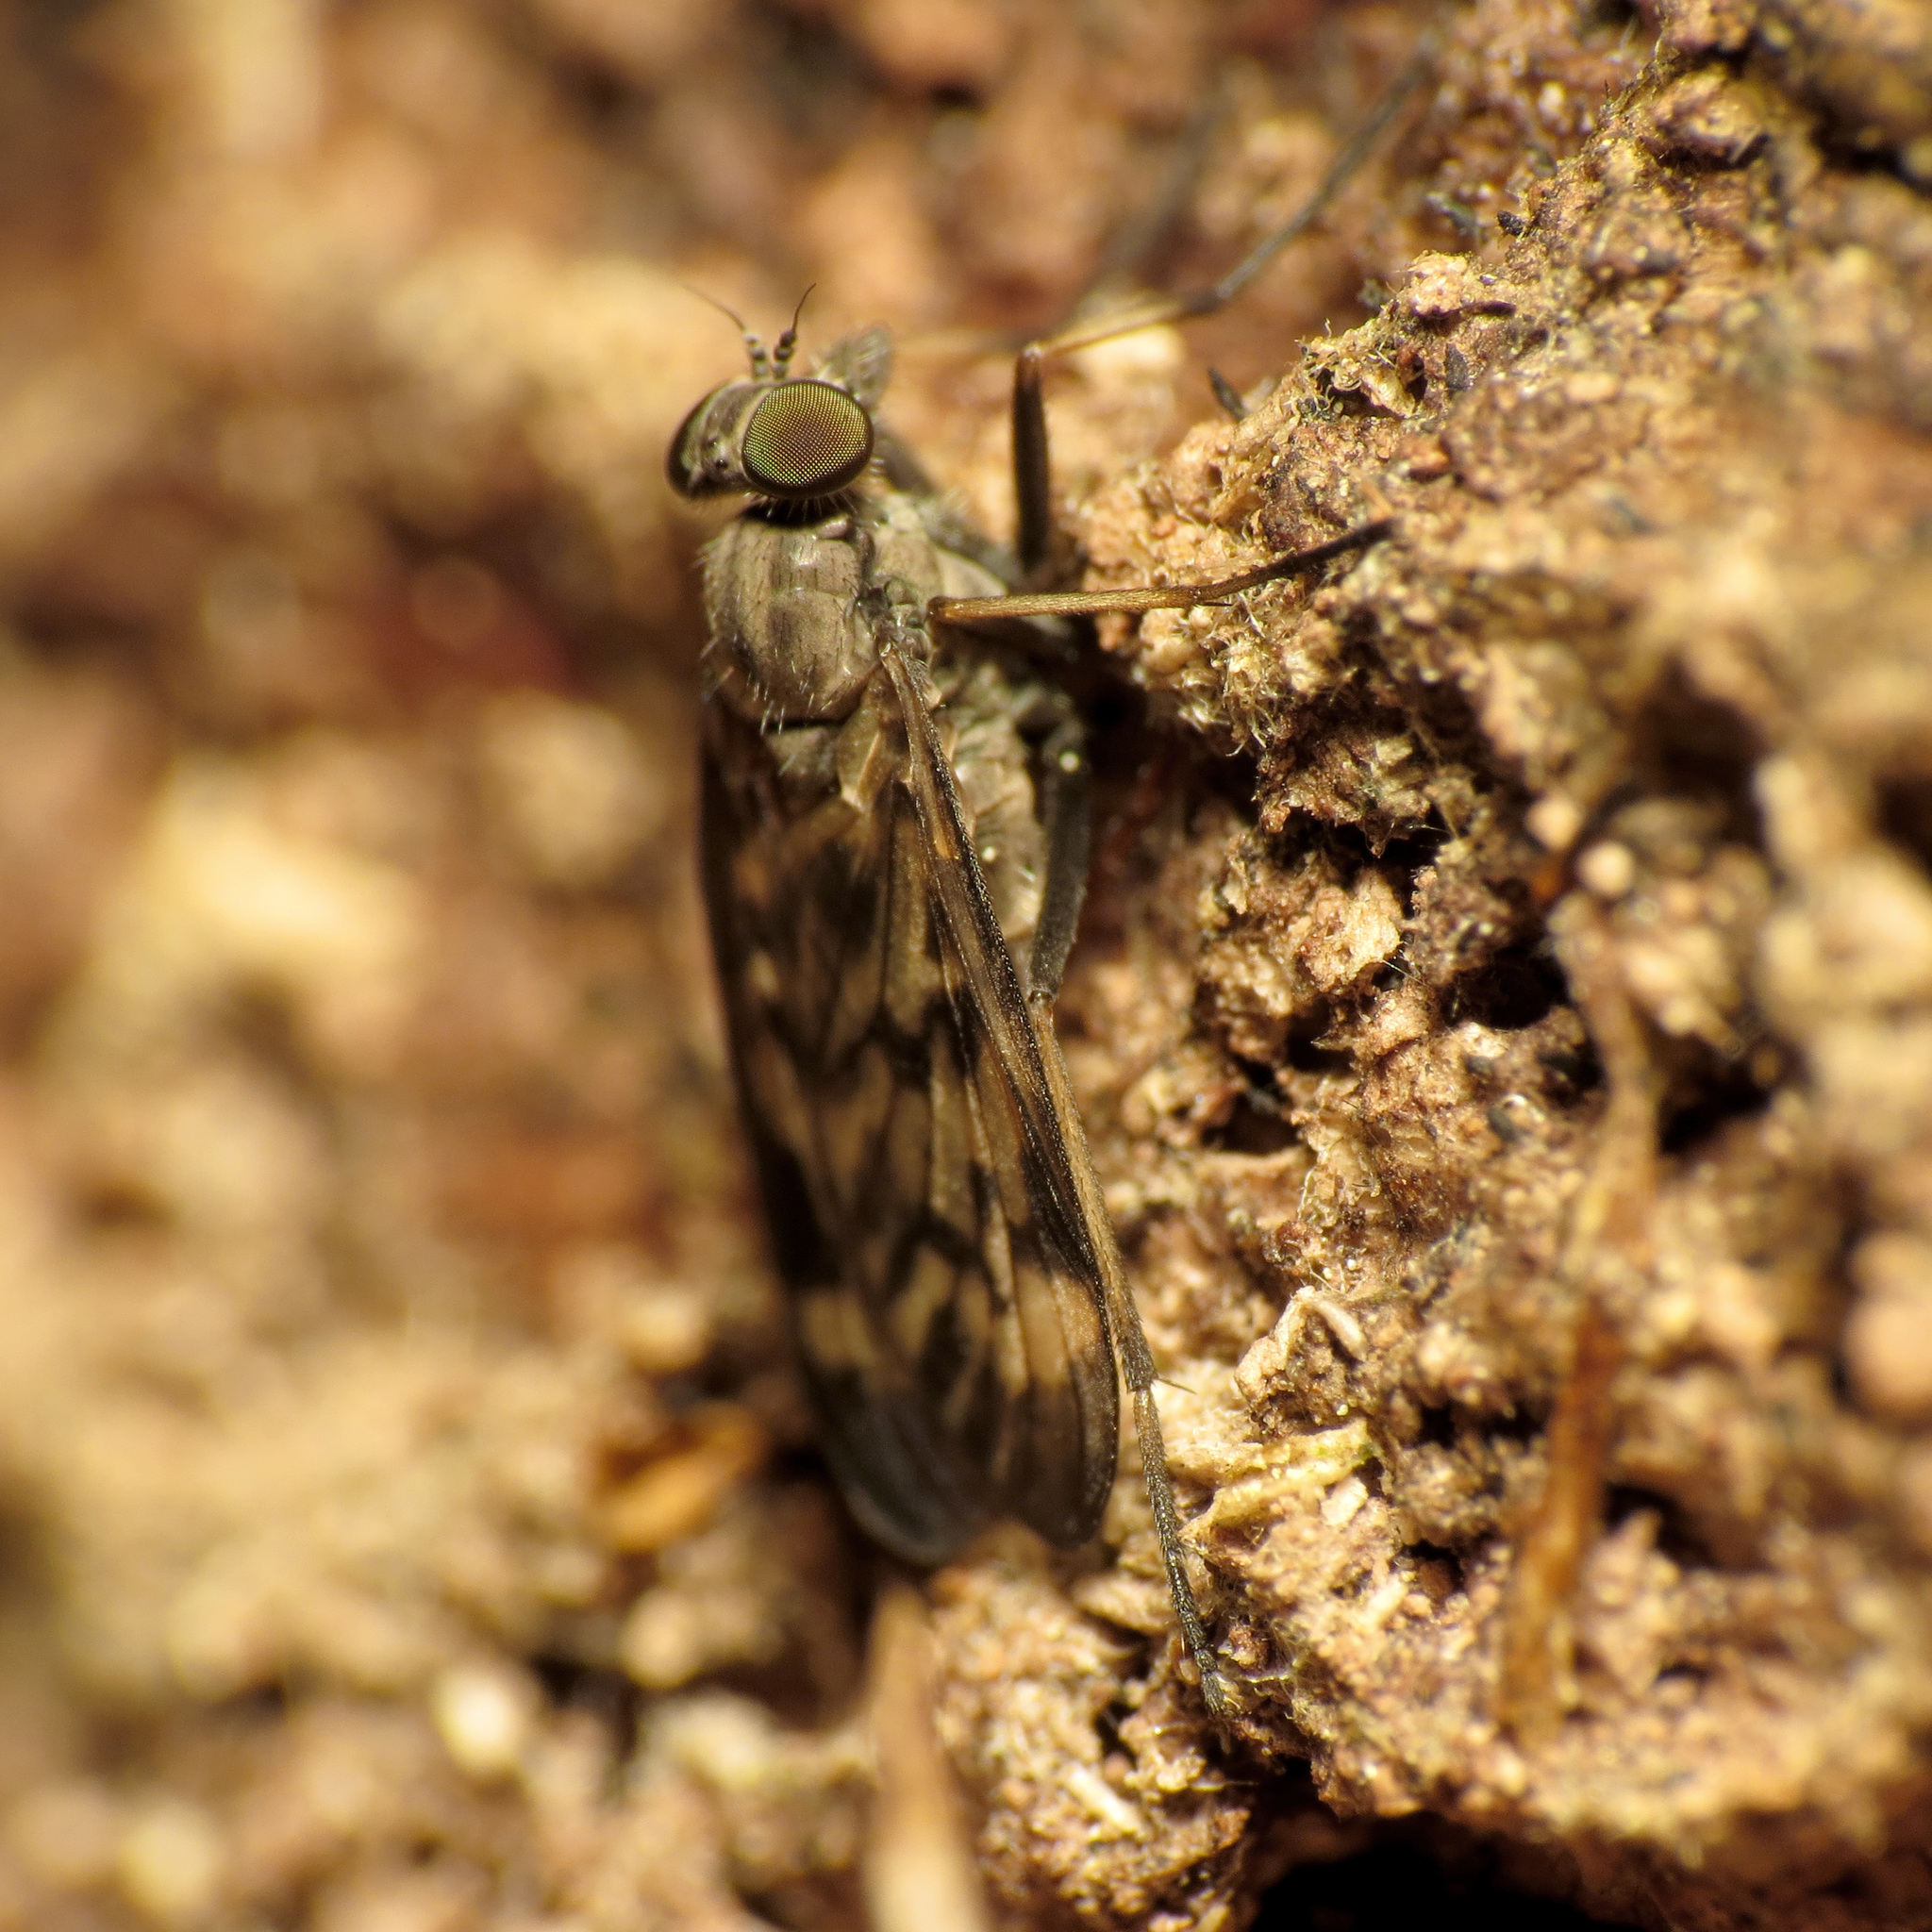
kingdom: Animalia
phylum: Arthropoda
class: Insecta
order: Diptera
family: Rhagionidae
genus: Rhagio
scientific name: Rhagio punctipennis
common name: Lesser variegated snipe fly
